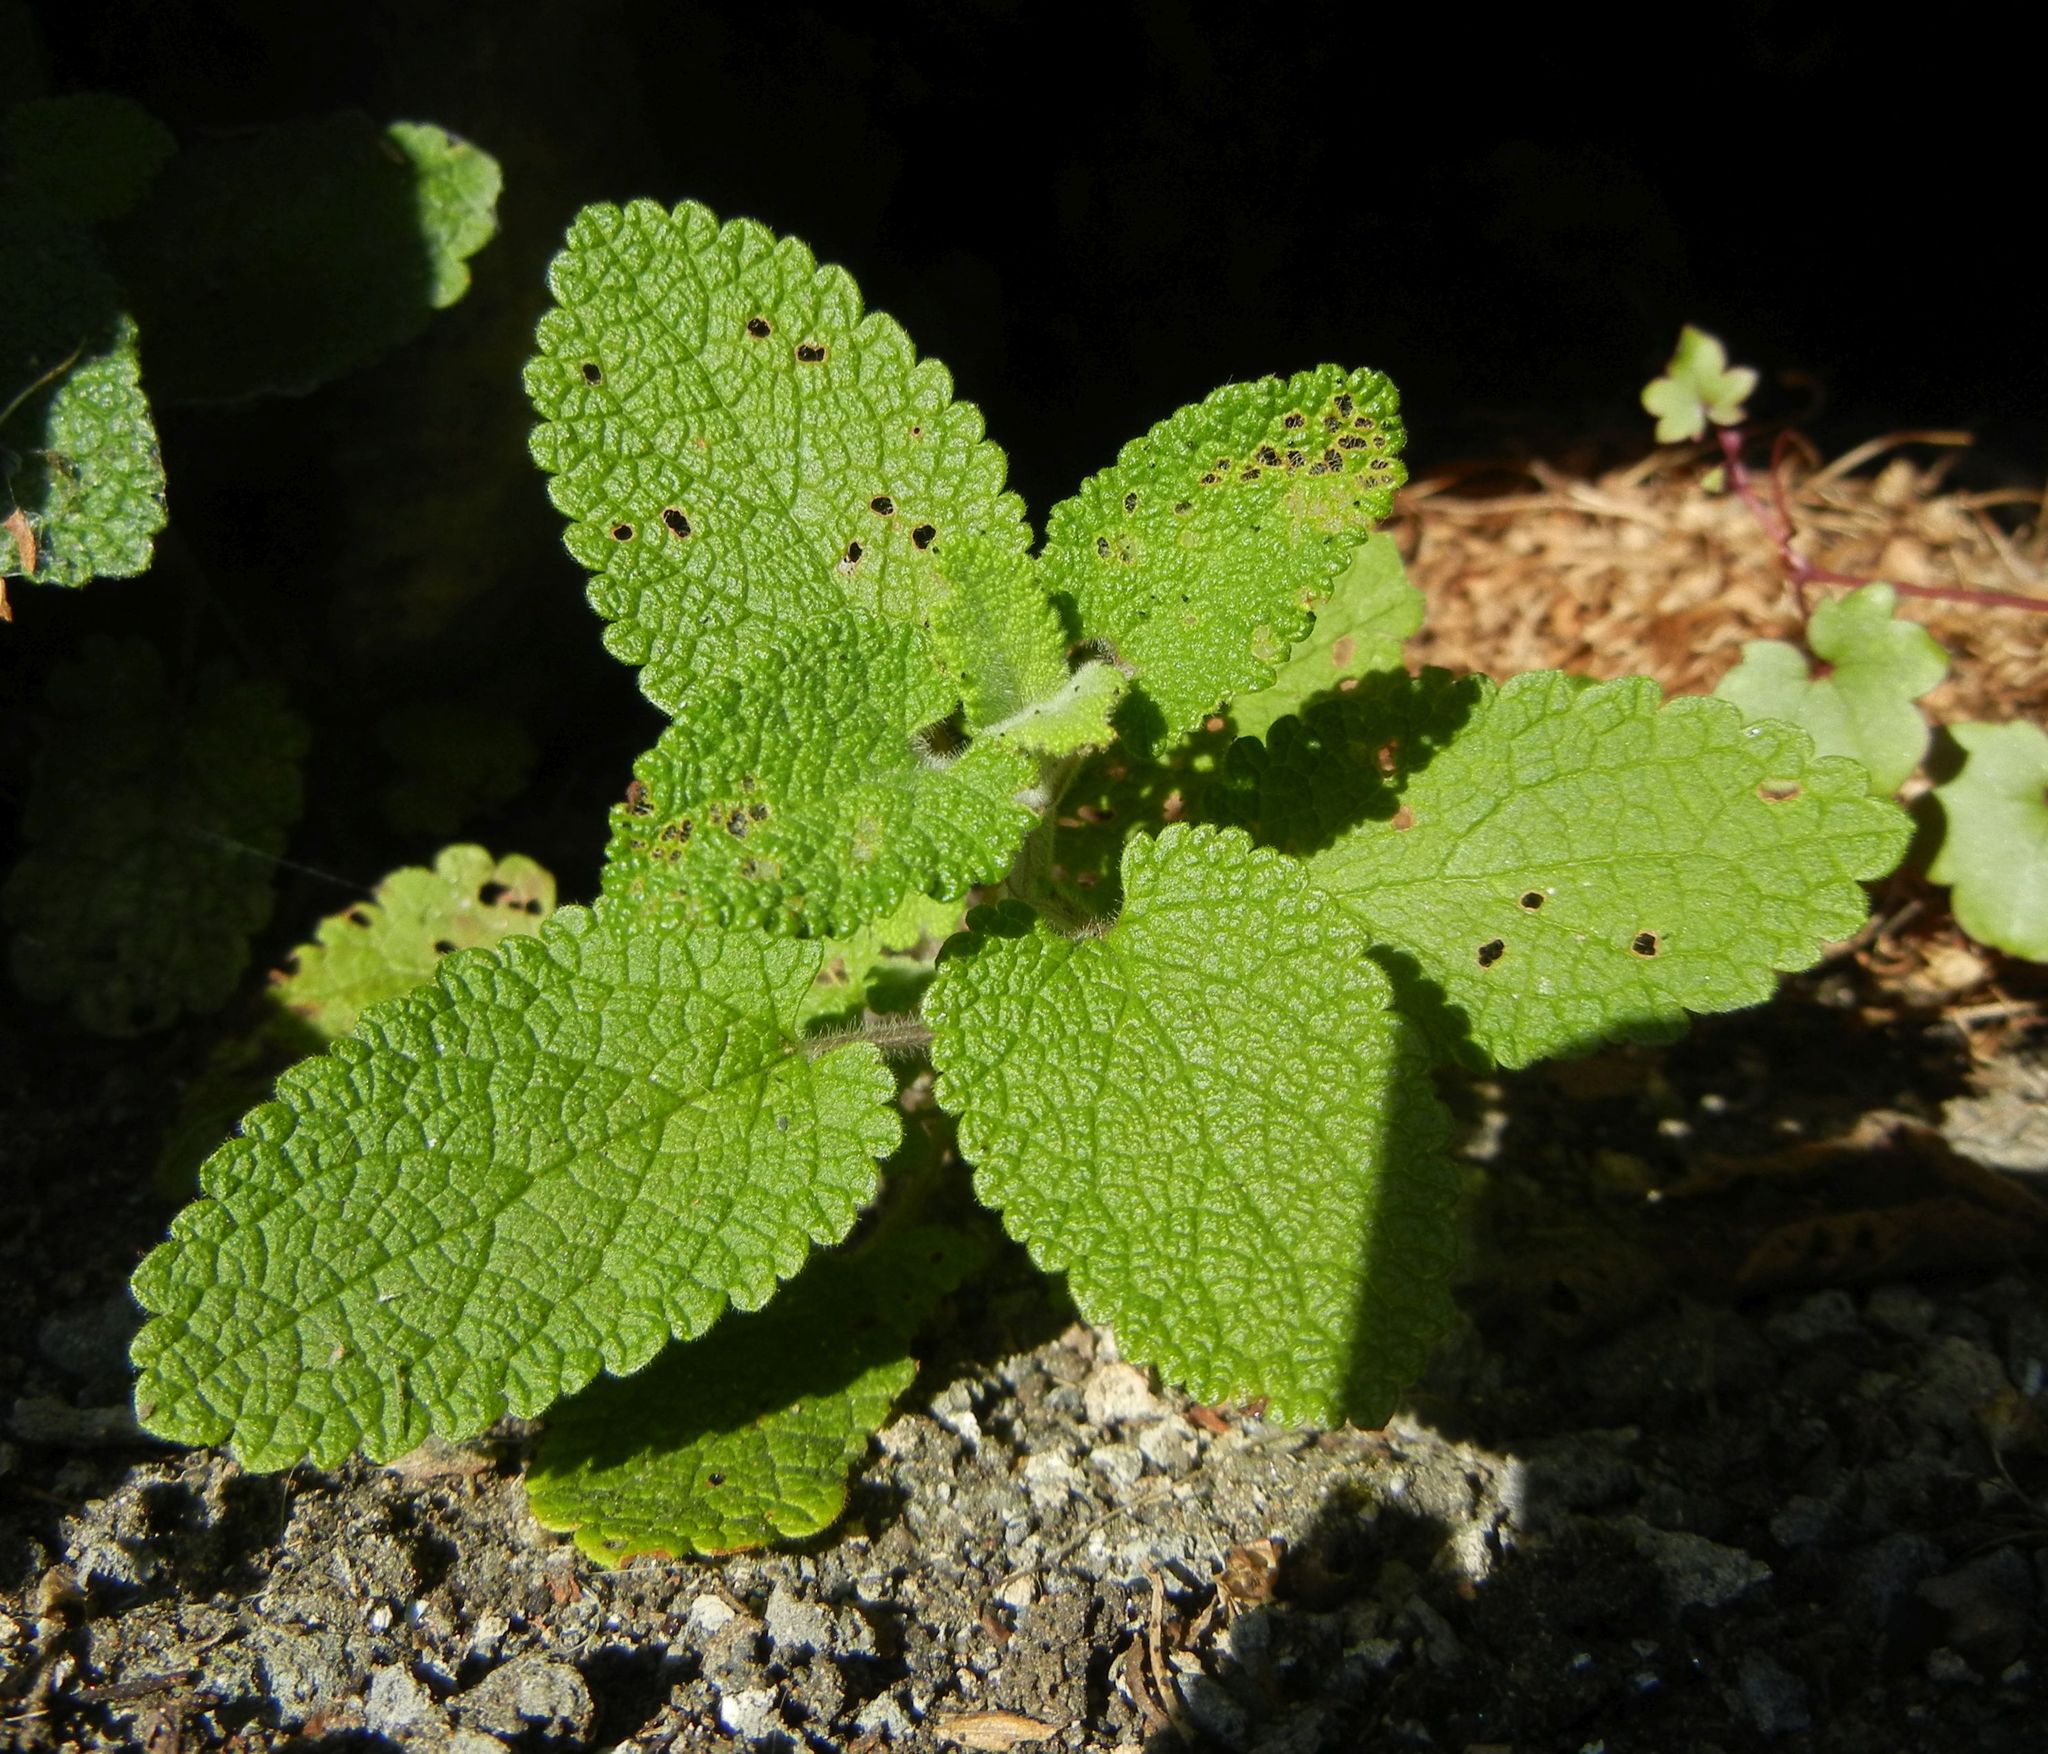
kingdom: Plantae
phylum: Tracheophyta
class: Magnoliopsida
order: Lamiales
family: Lamiaceae
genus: Teucrium
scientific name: Teucrium scorodonia
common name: Woodland germander
